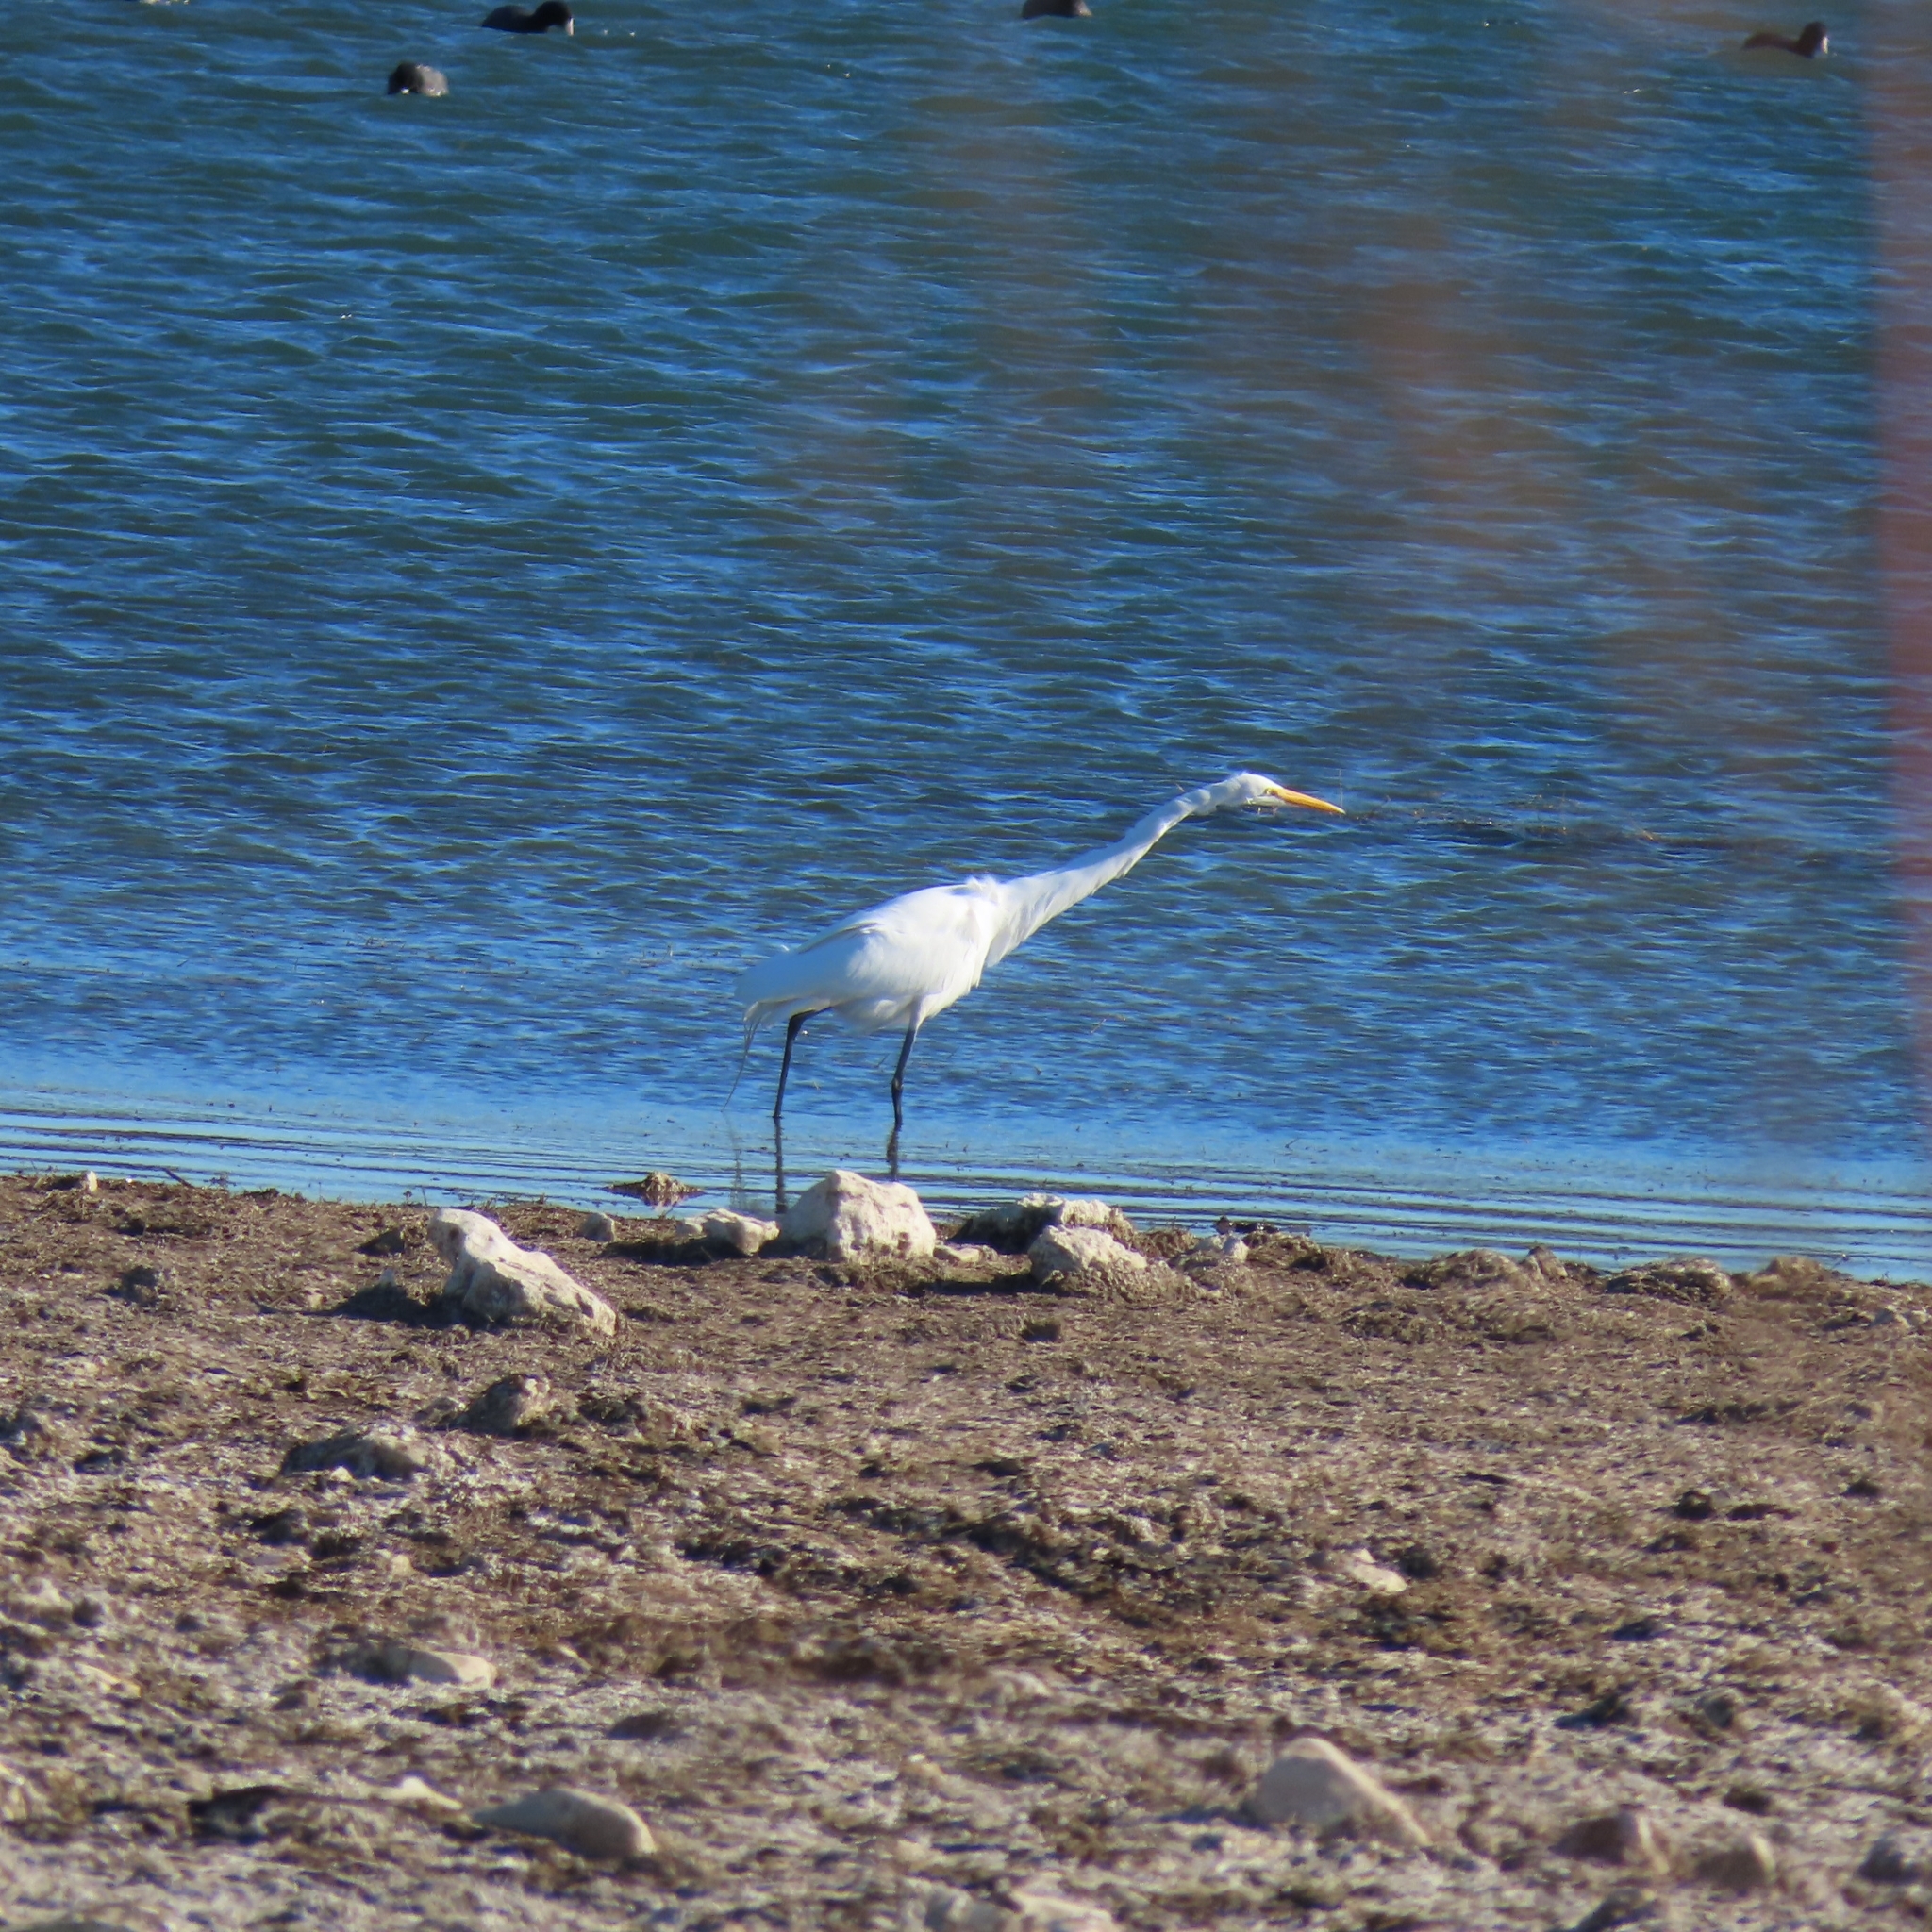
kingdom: Animalia
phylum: Chordata
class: Aves
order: Pelecaniformes
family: Ardeidae
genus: Ardea
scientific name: Ardea alba
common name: Great egret
